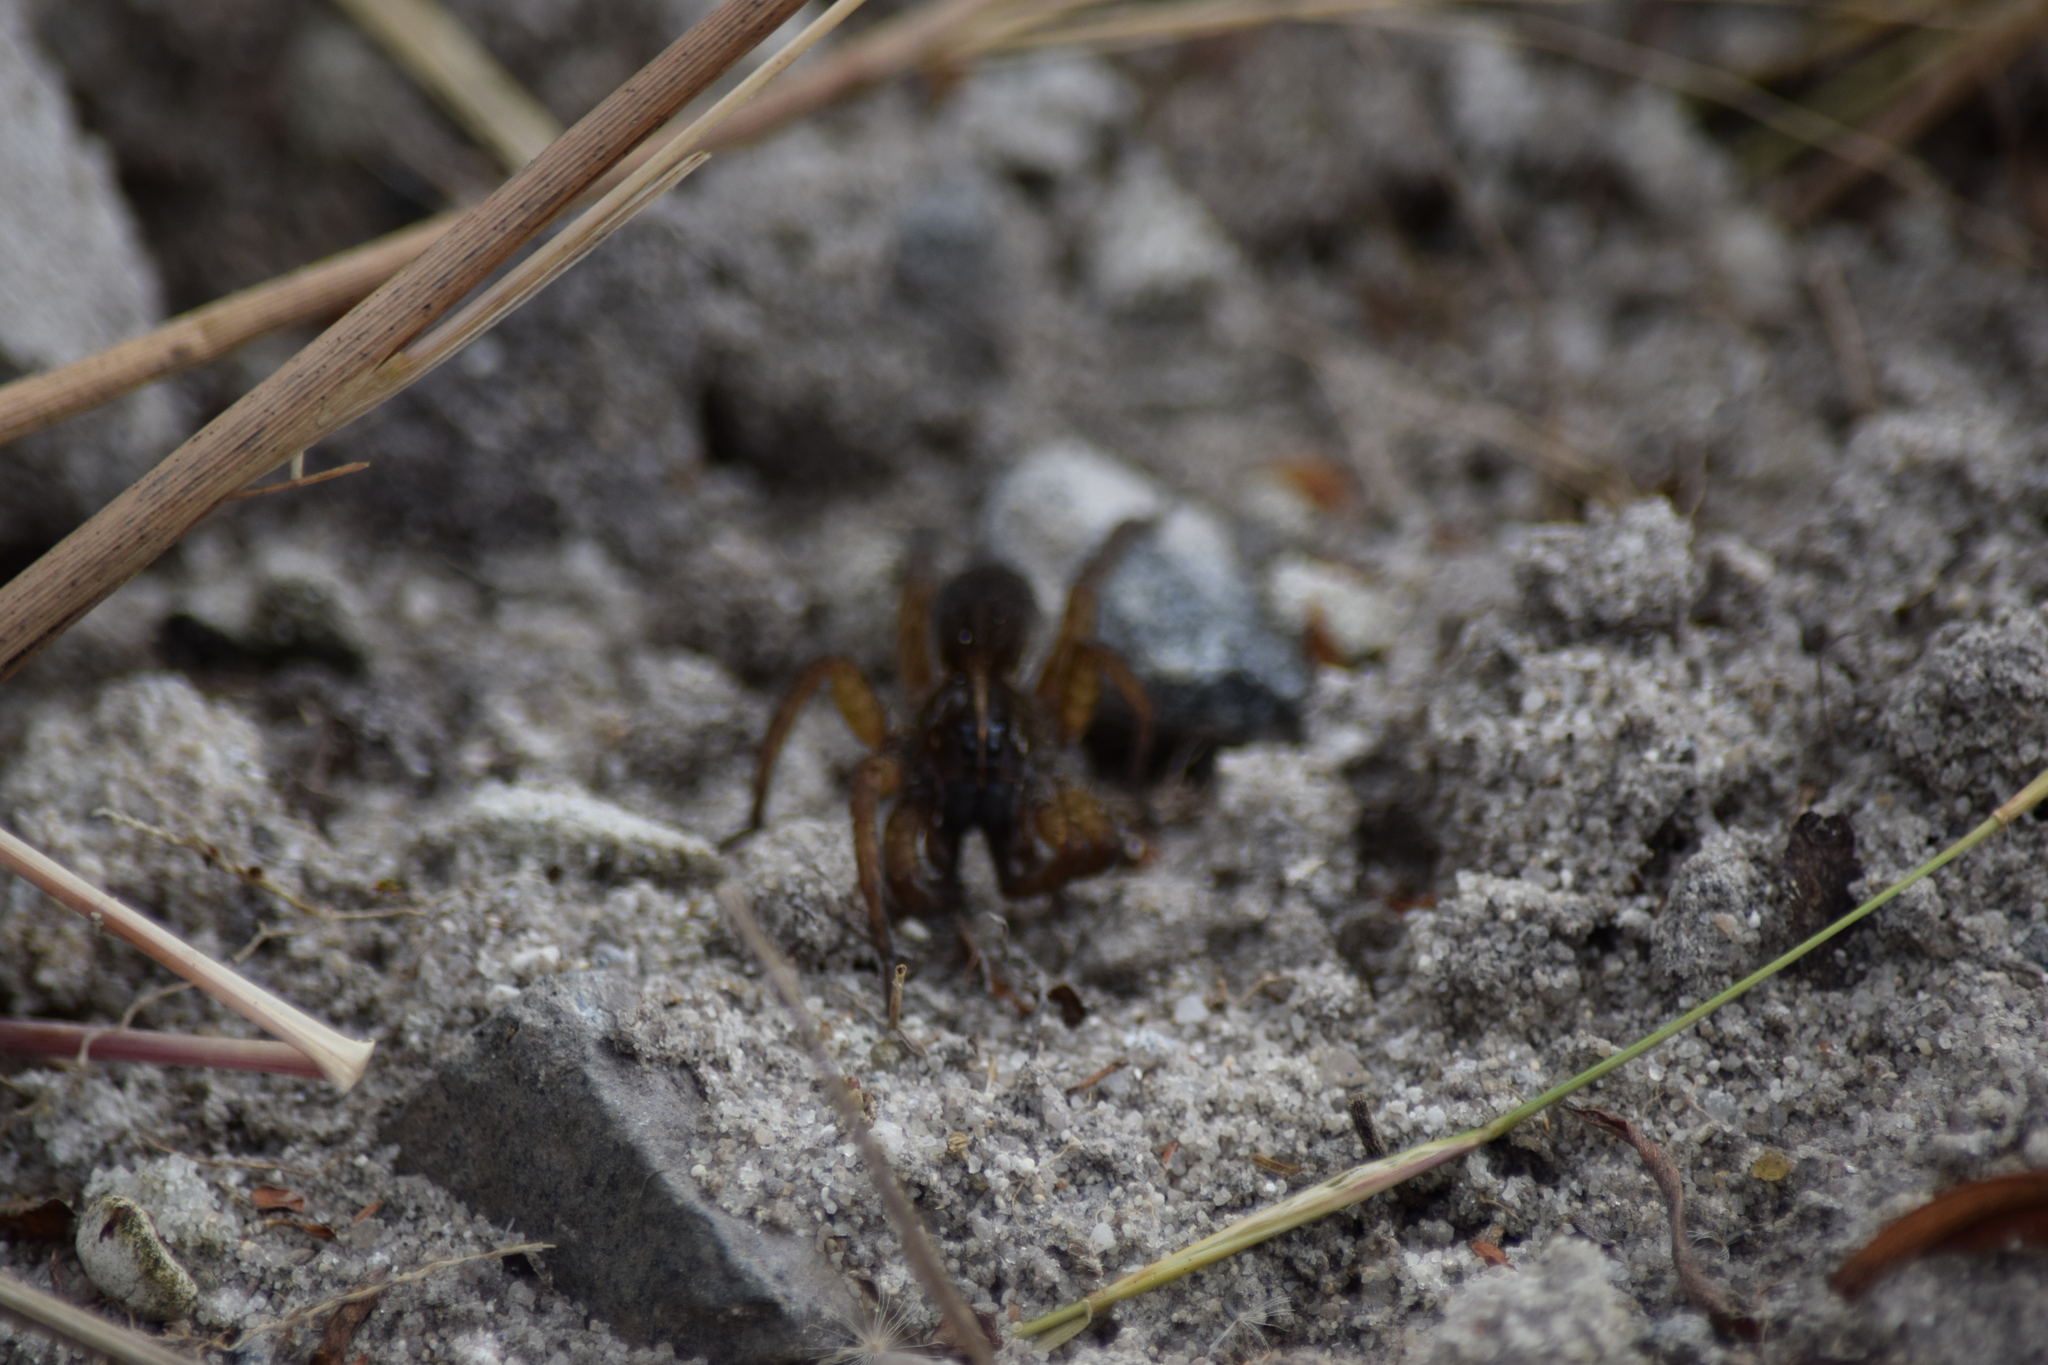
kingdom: Animalia
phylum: Arthropoda
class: Arachnida
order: Araneae
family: Lycosidae
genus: Tigrosa
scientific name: Tigrosa helluo
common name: Wetland giant wolf spider
